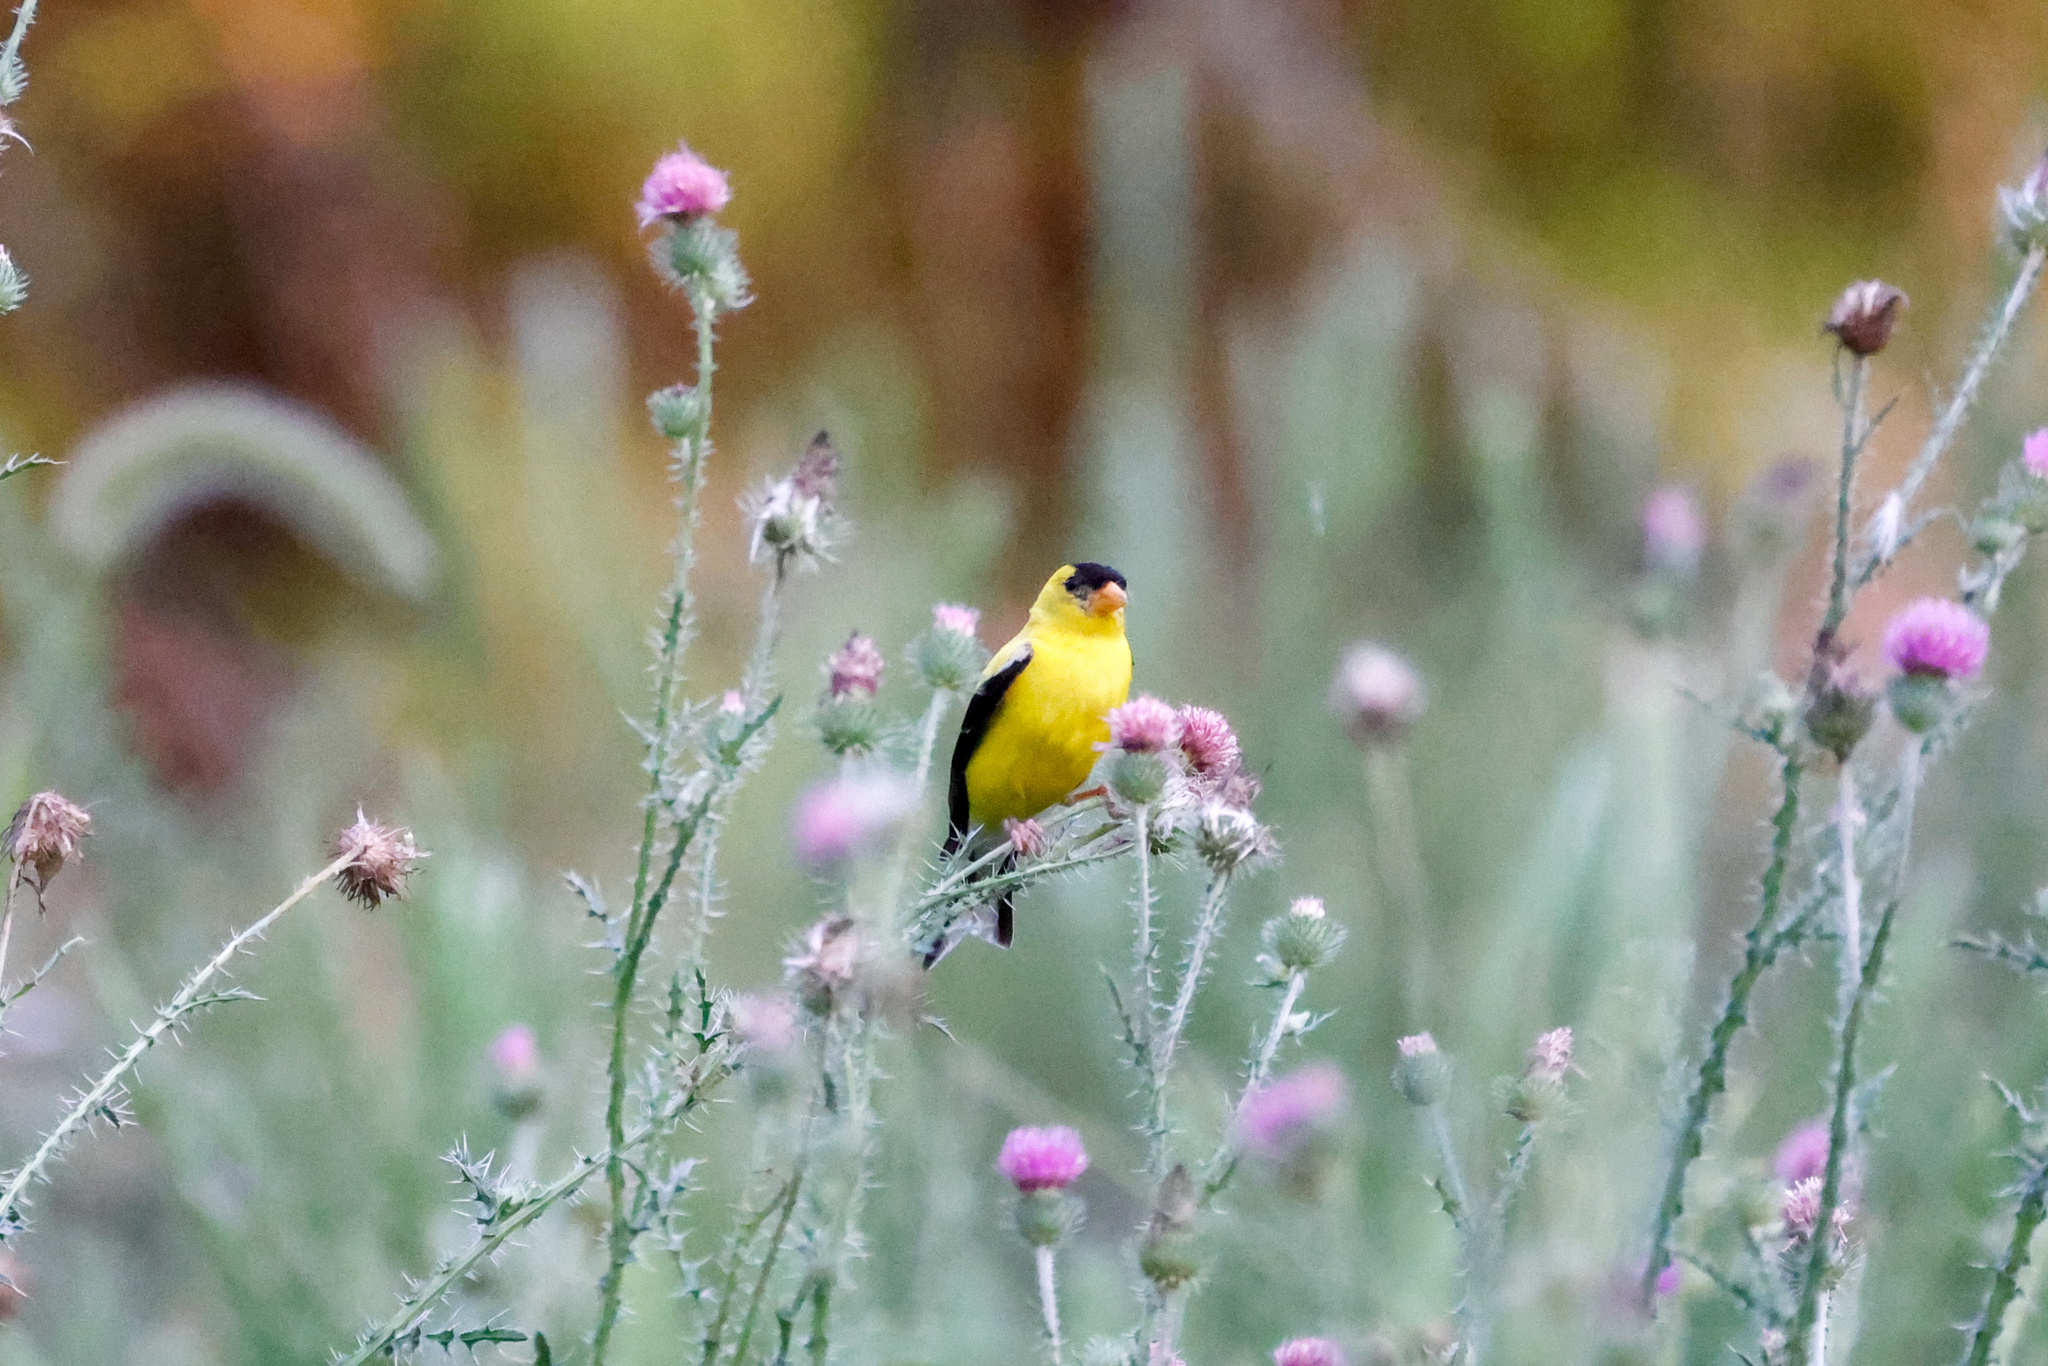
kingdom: Animalia
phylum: Chordata
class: Aves
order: Passeriformes
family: Fringillidae
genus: Spinus
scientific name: Spinus tristis
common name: American goldfinch
